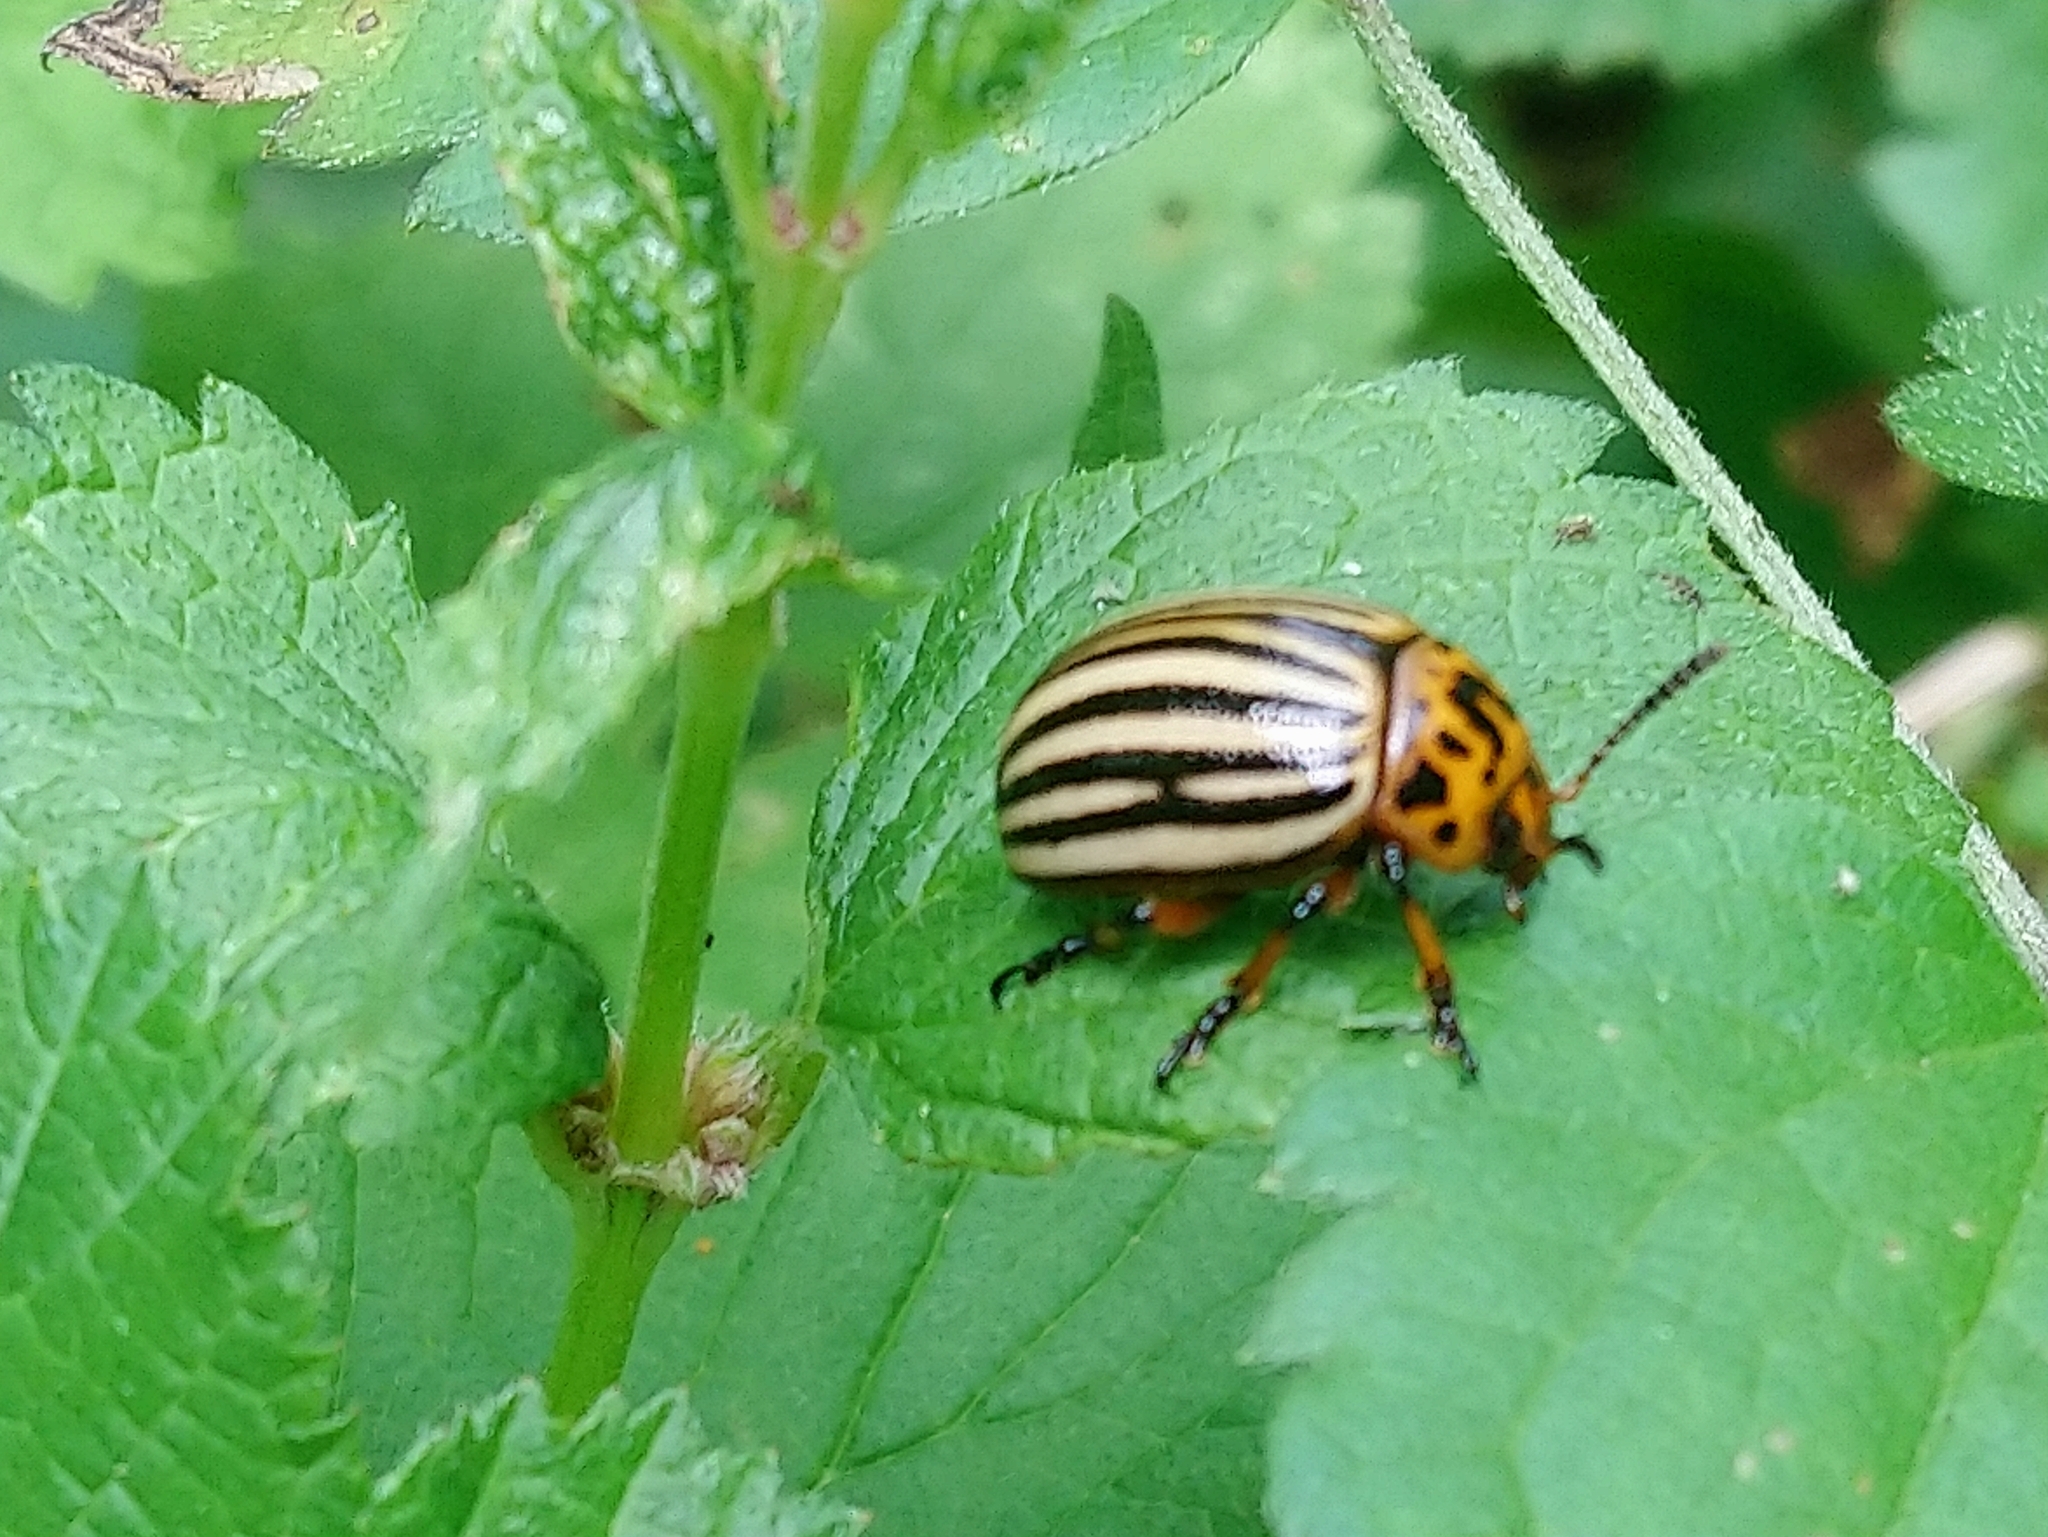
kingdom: Animalia
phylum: Arthropoda
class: Insecta
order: Coleoptera
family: Chrysomelidae
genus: Leptinotarsa
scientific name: Leptinotarsa decemlineata
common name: Colorado potato beetle
